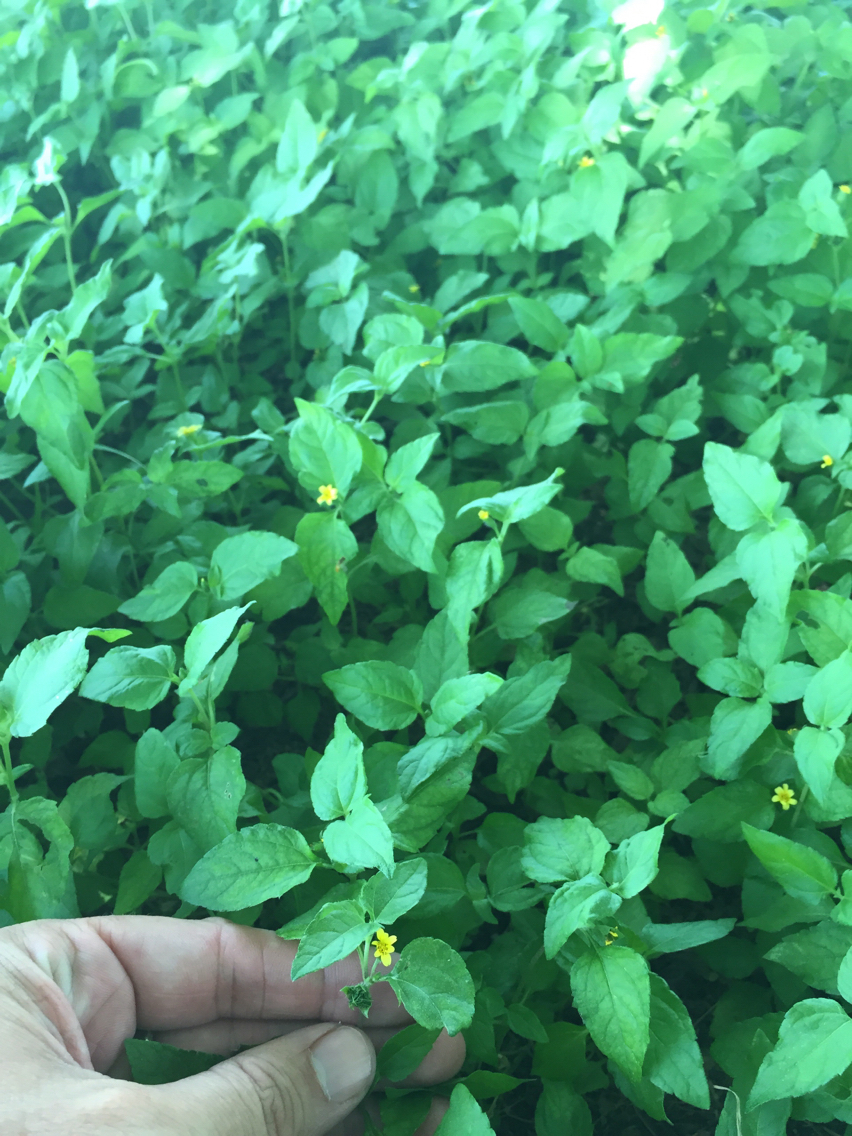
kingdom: Plantae
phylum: Tracheophyta
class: Magnoliopsida
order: Asterales
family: Asteraceae
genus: Calyptocarpus
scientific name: Calyptocarpus vialis
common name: Straggler daisy
